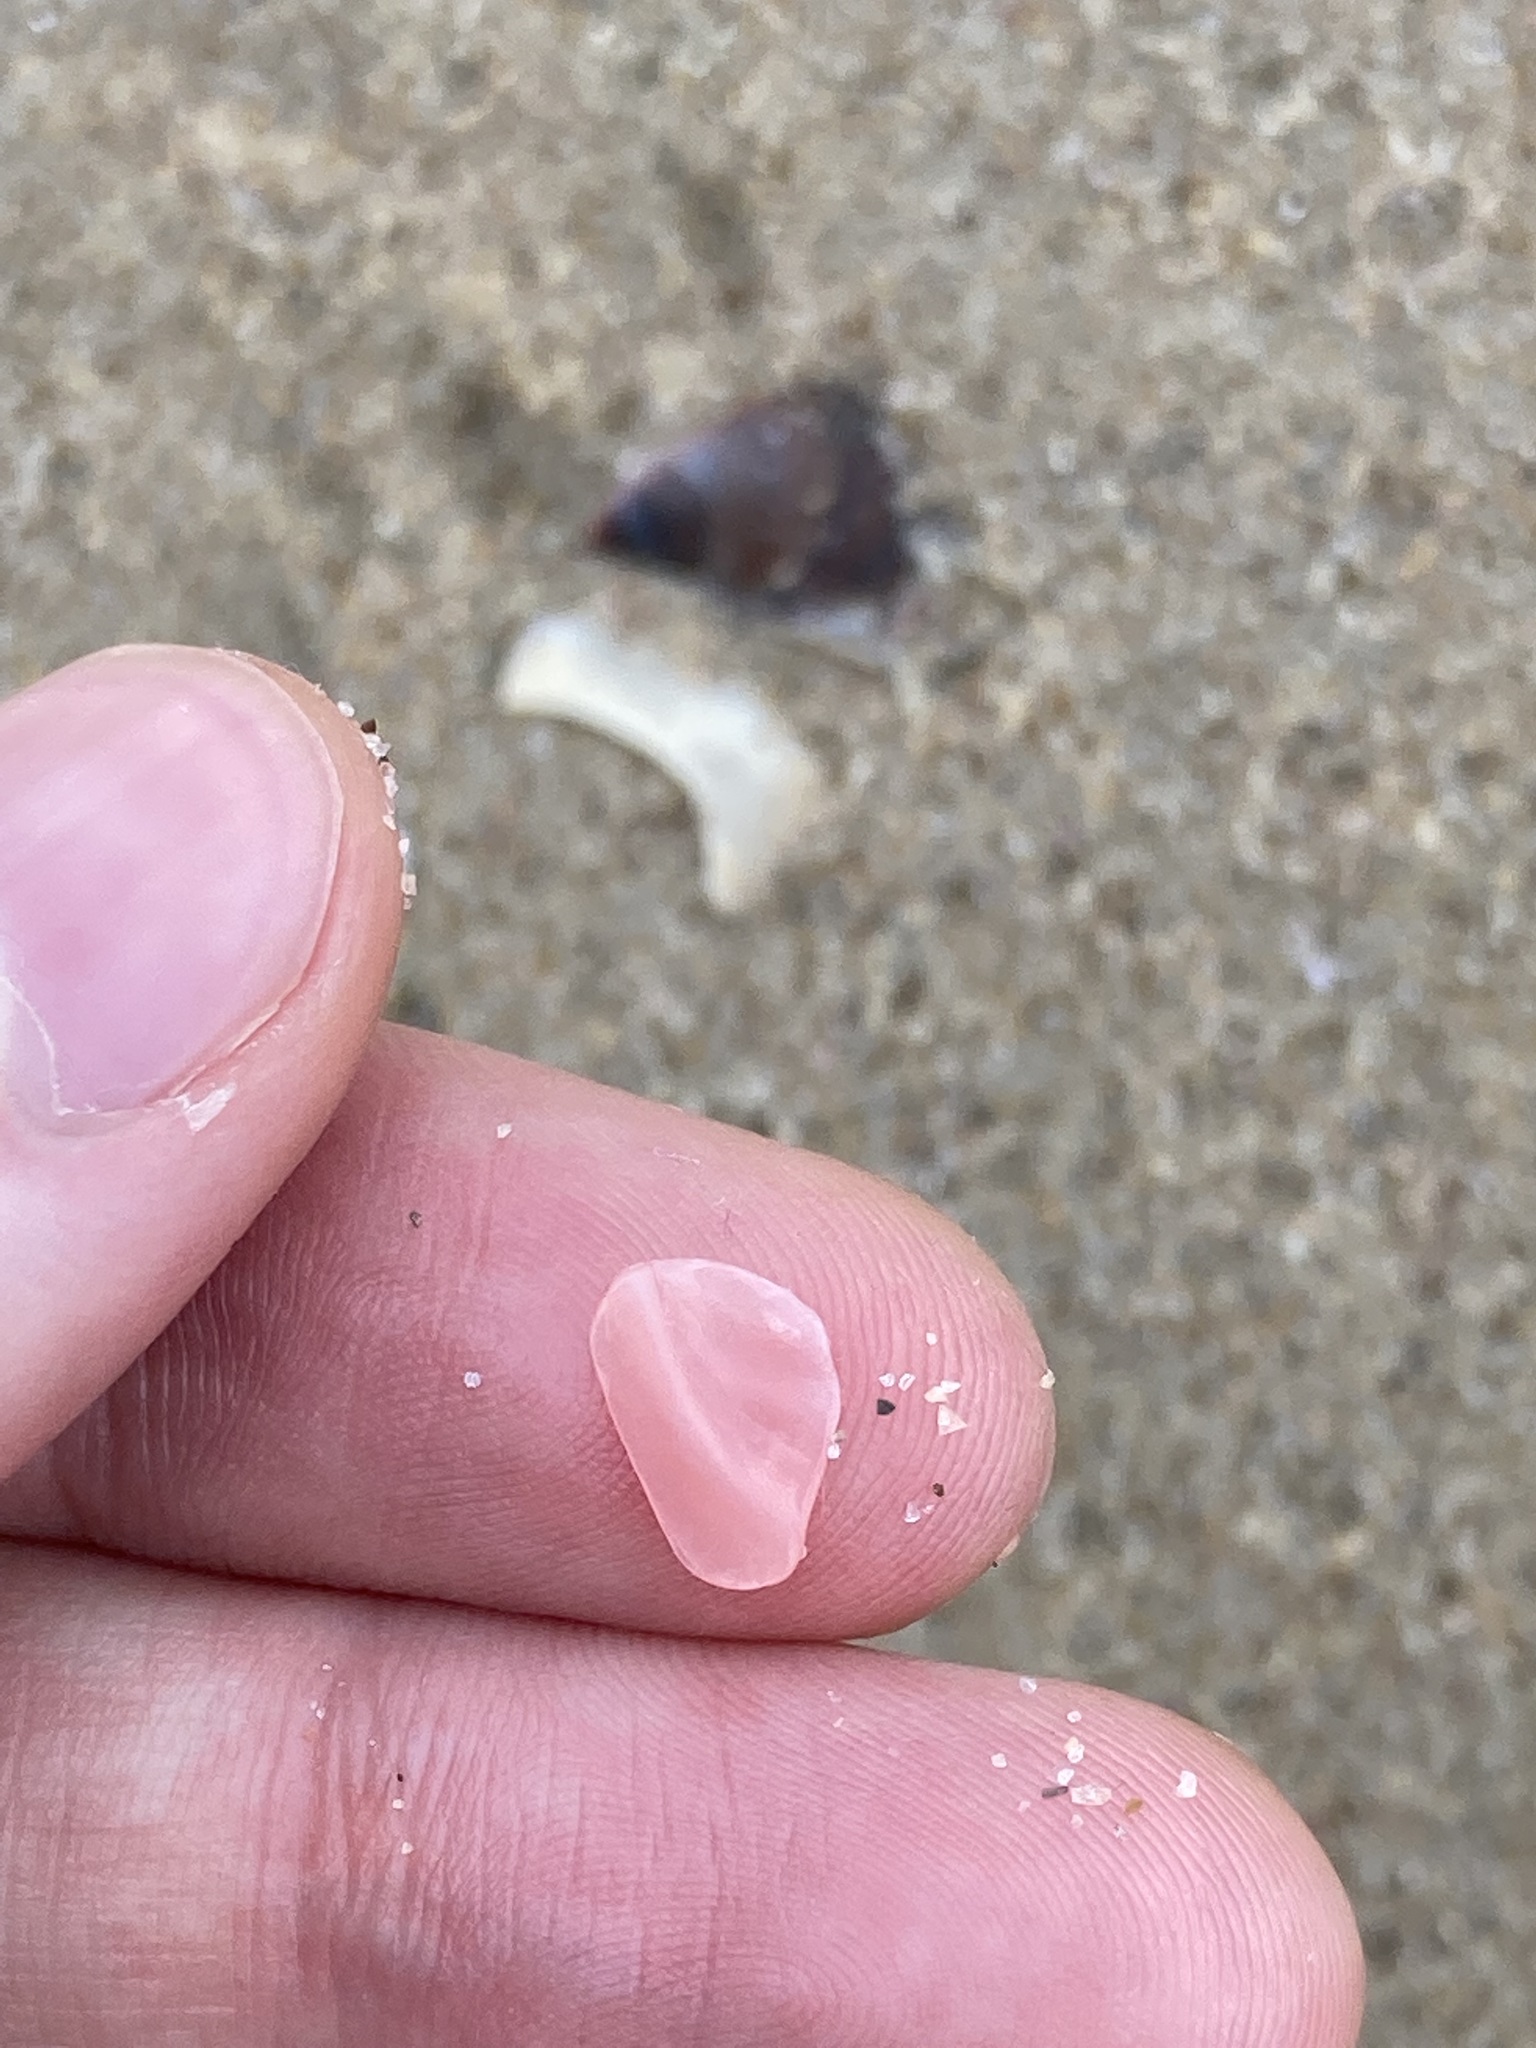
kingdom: Animalia
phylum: Mollusca
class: Bivalvia
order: Cardiida
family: Tellinidae
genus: Tellinota
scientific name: Tellinota albinella
